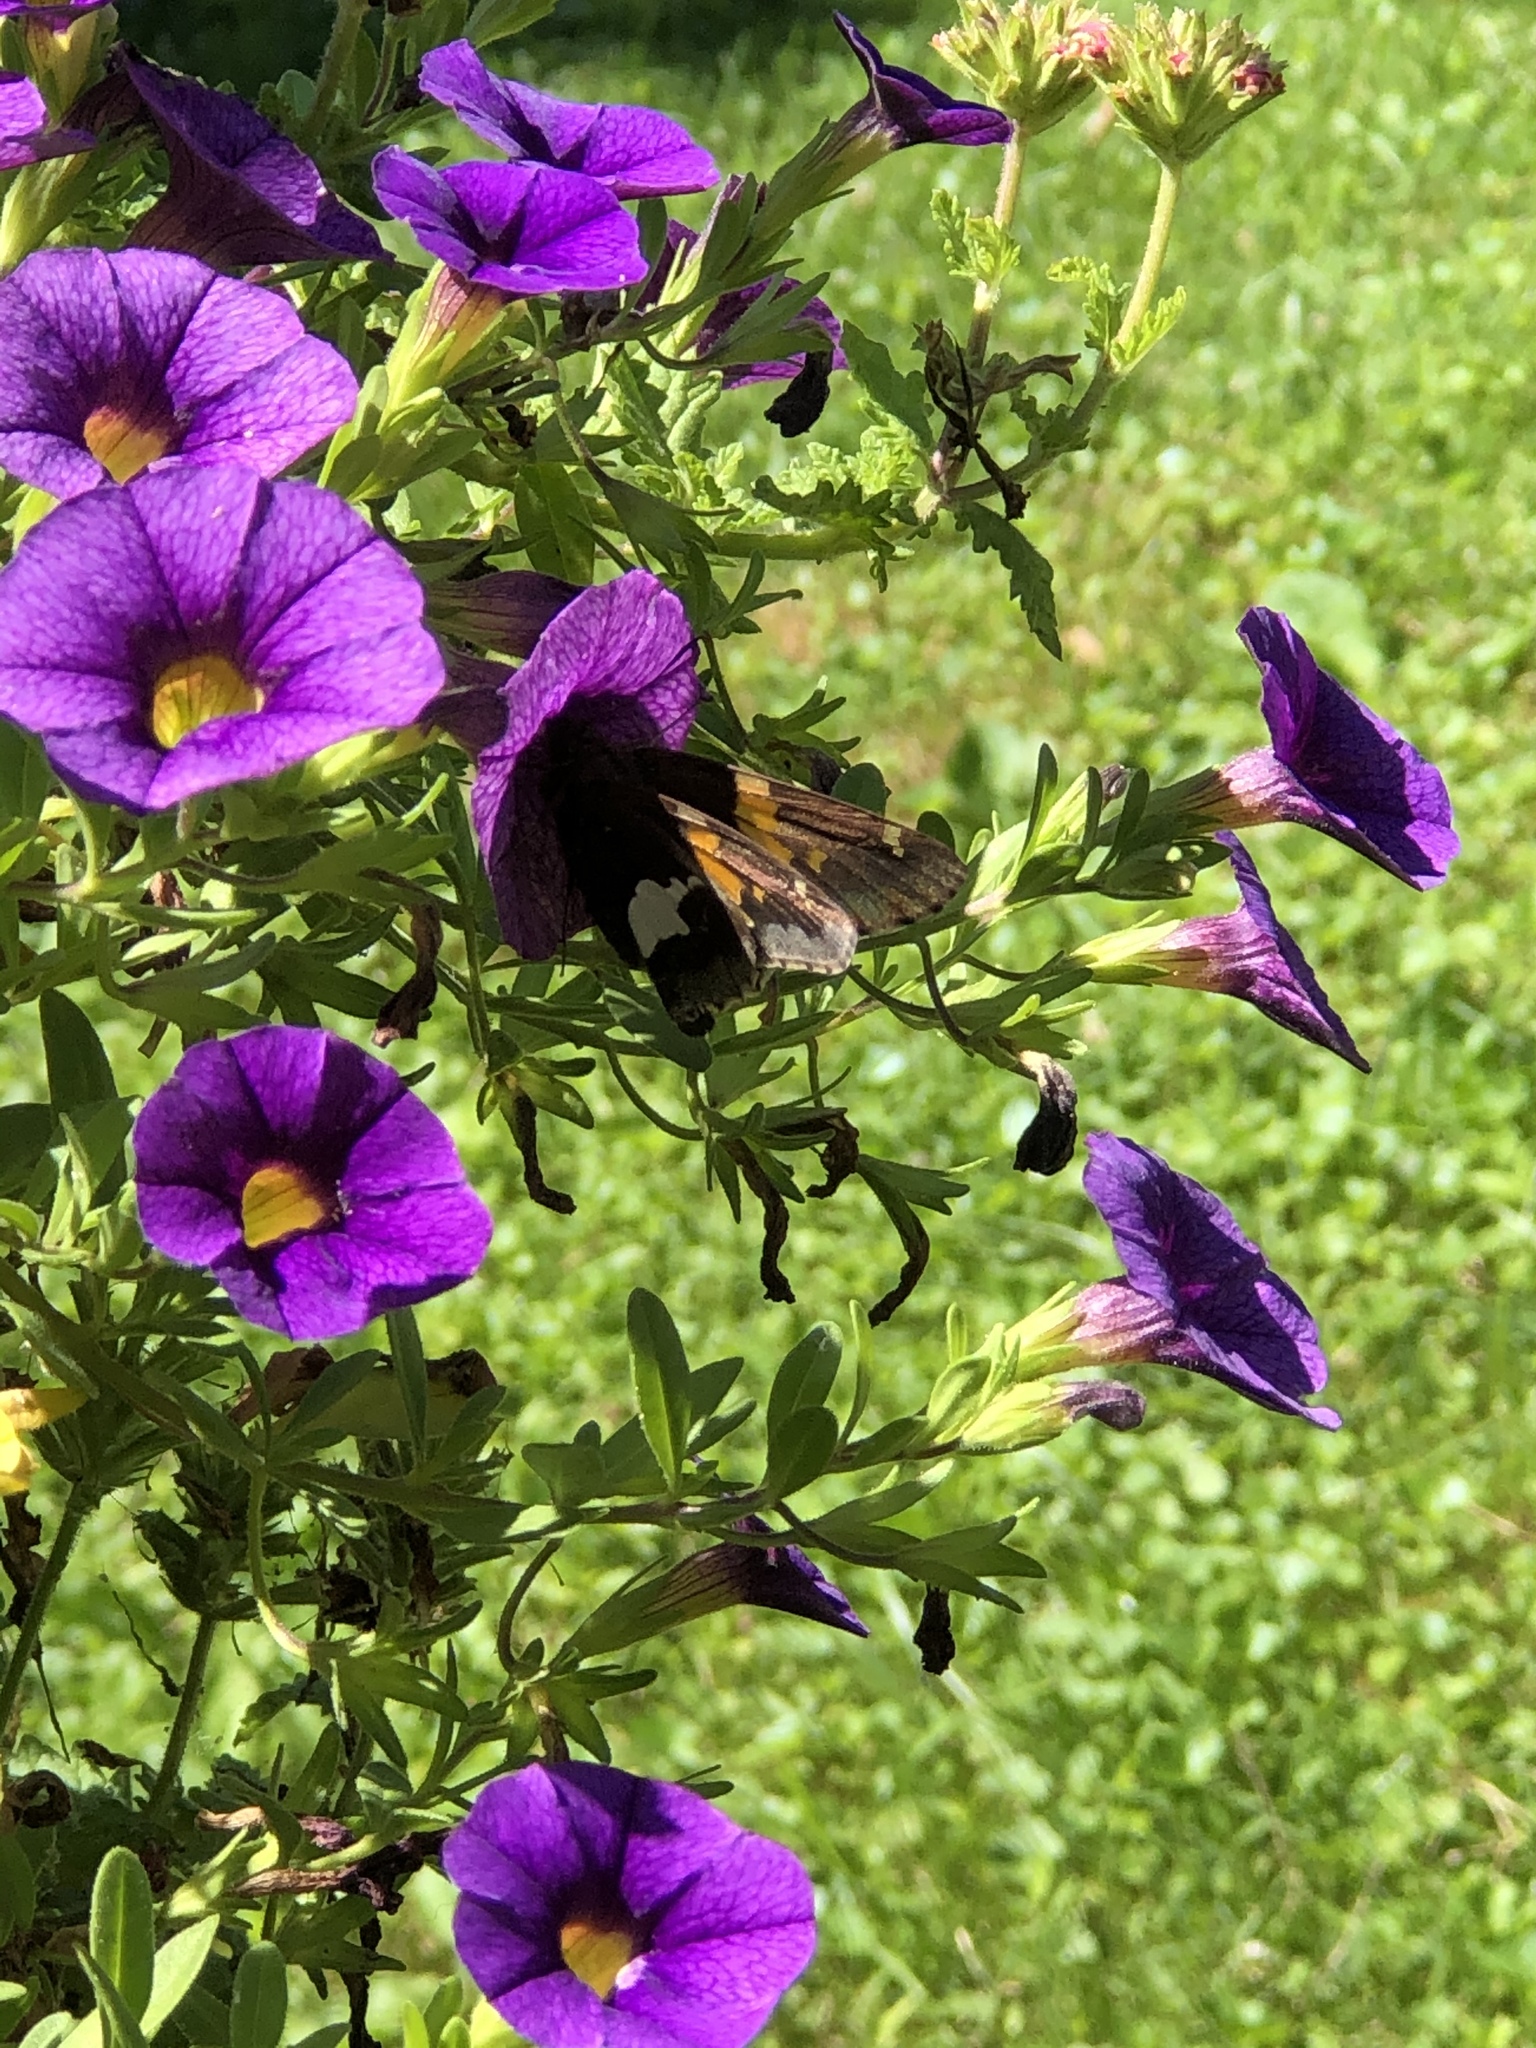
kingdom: Animalia
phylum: Arthropoda
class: Insecta
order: Lepidoptera
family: Hesperiidae
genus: Epargyreus
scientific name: Epargyreus clarus
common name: Silver-spotted skipper
